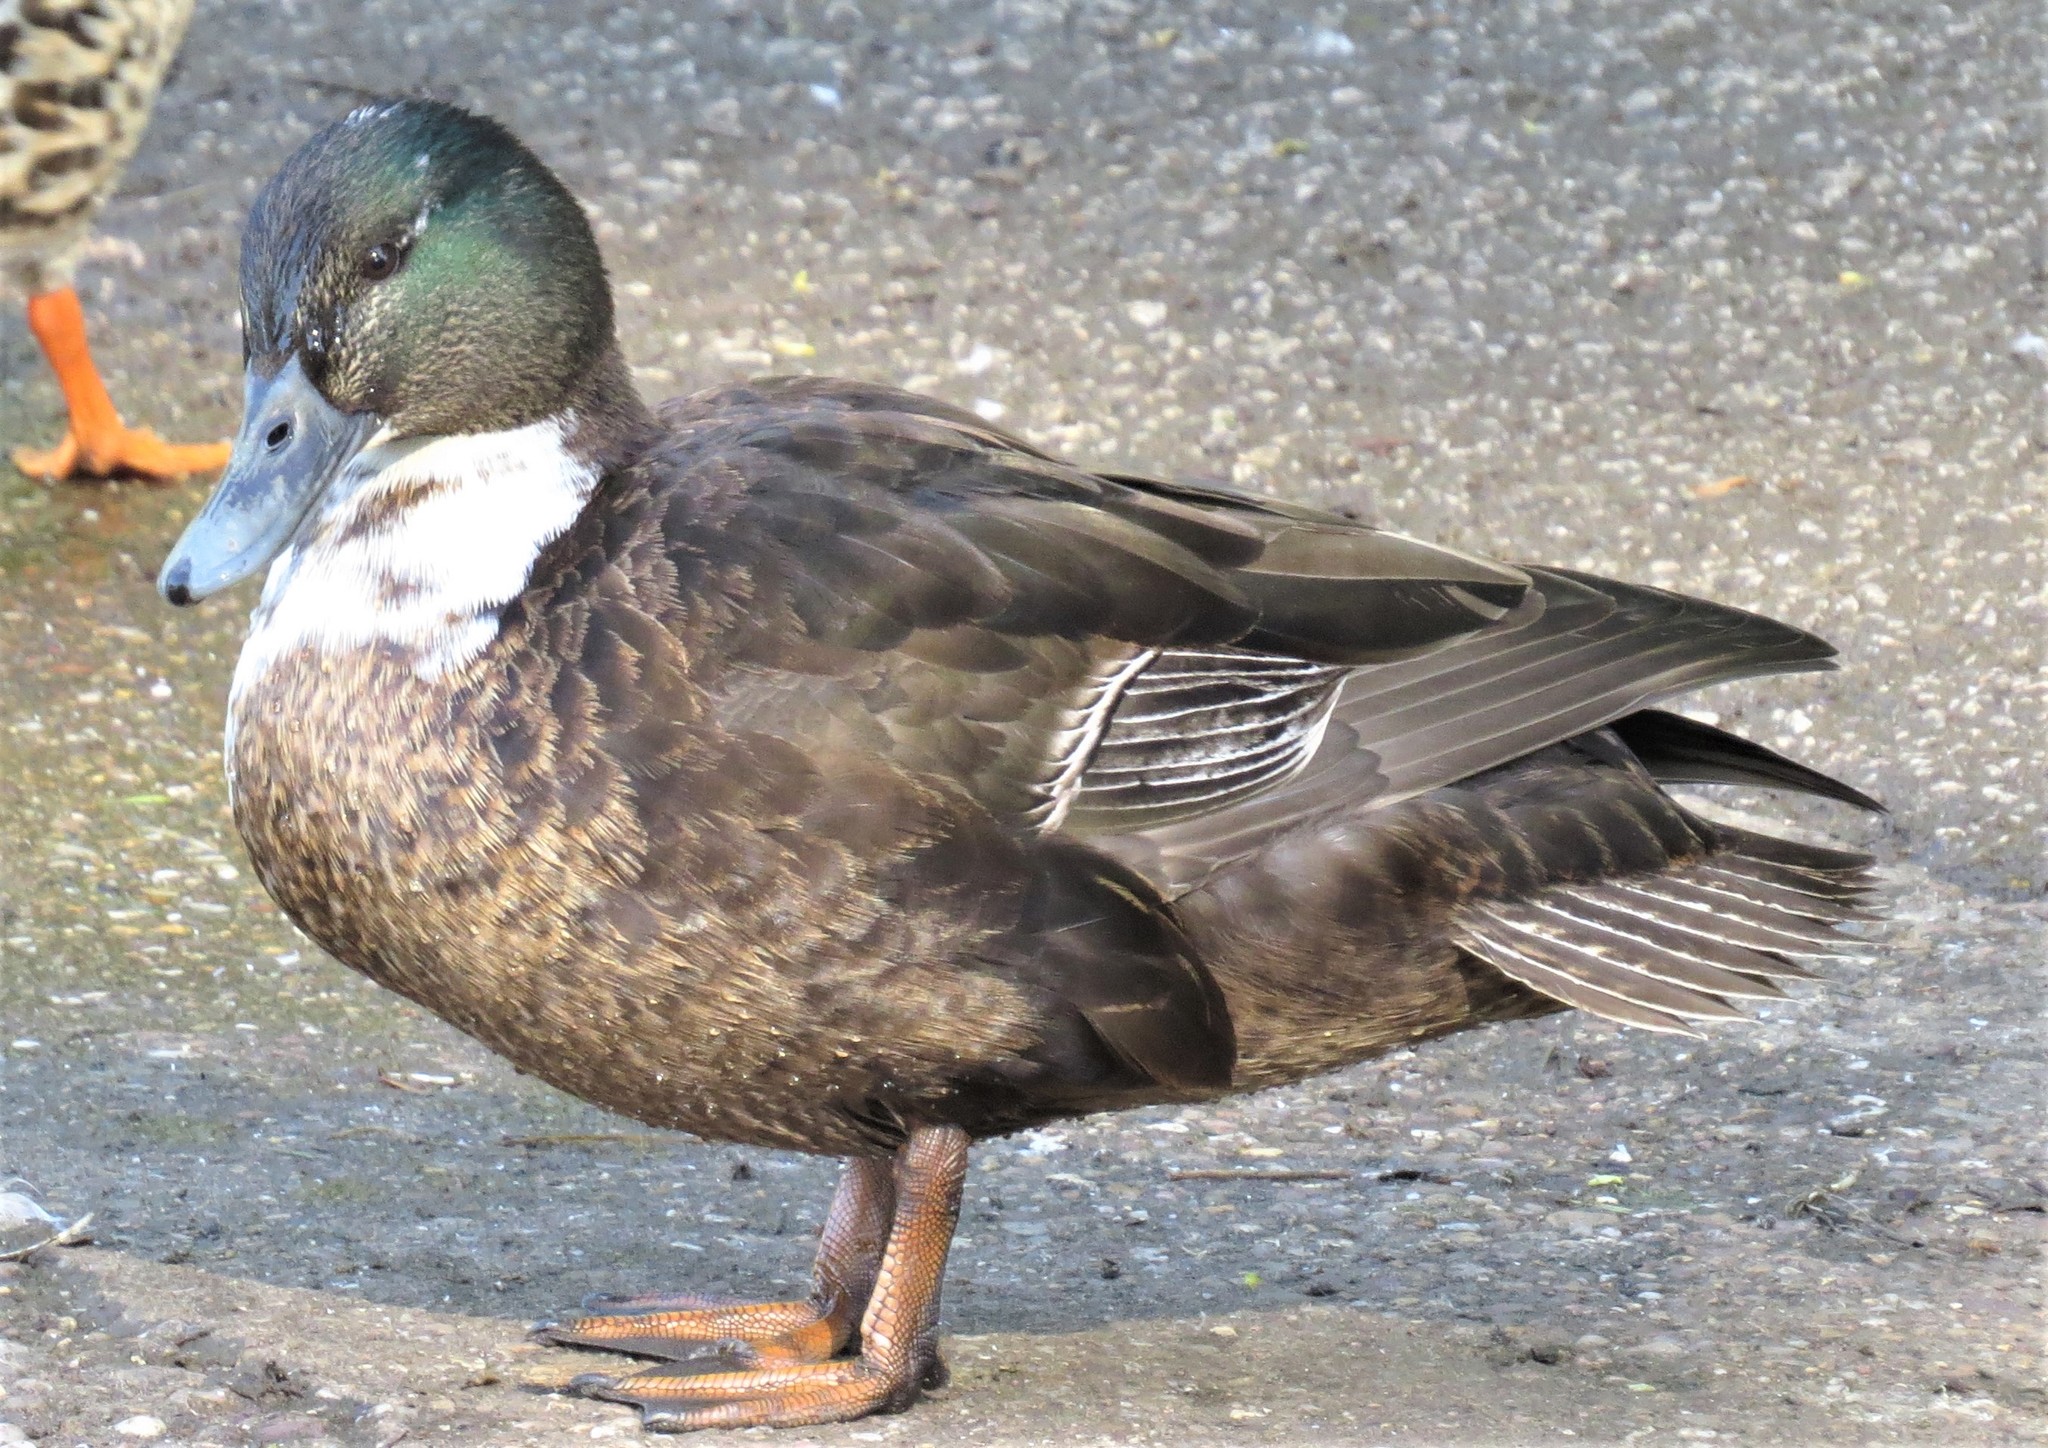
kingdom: Animalia
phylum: Chordata
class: Aves
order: Anseriformes
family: Anatidae
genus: Anas
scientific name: Anas platyrhynchos
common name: Mallard
